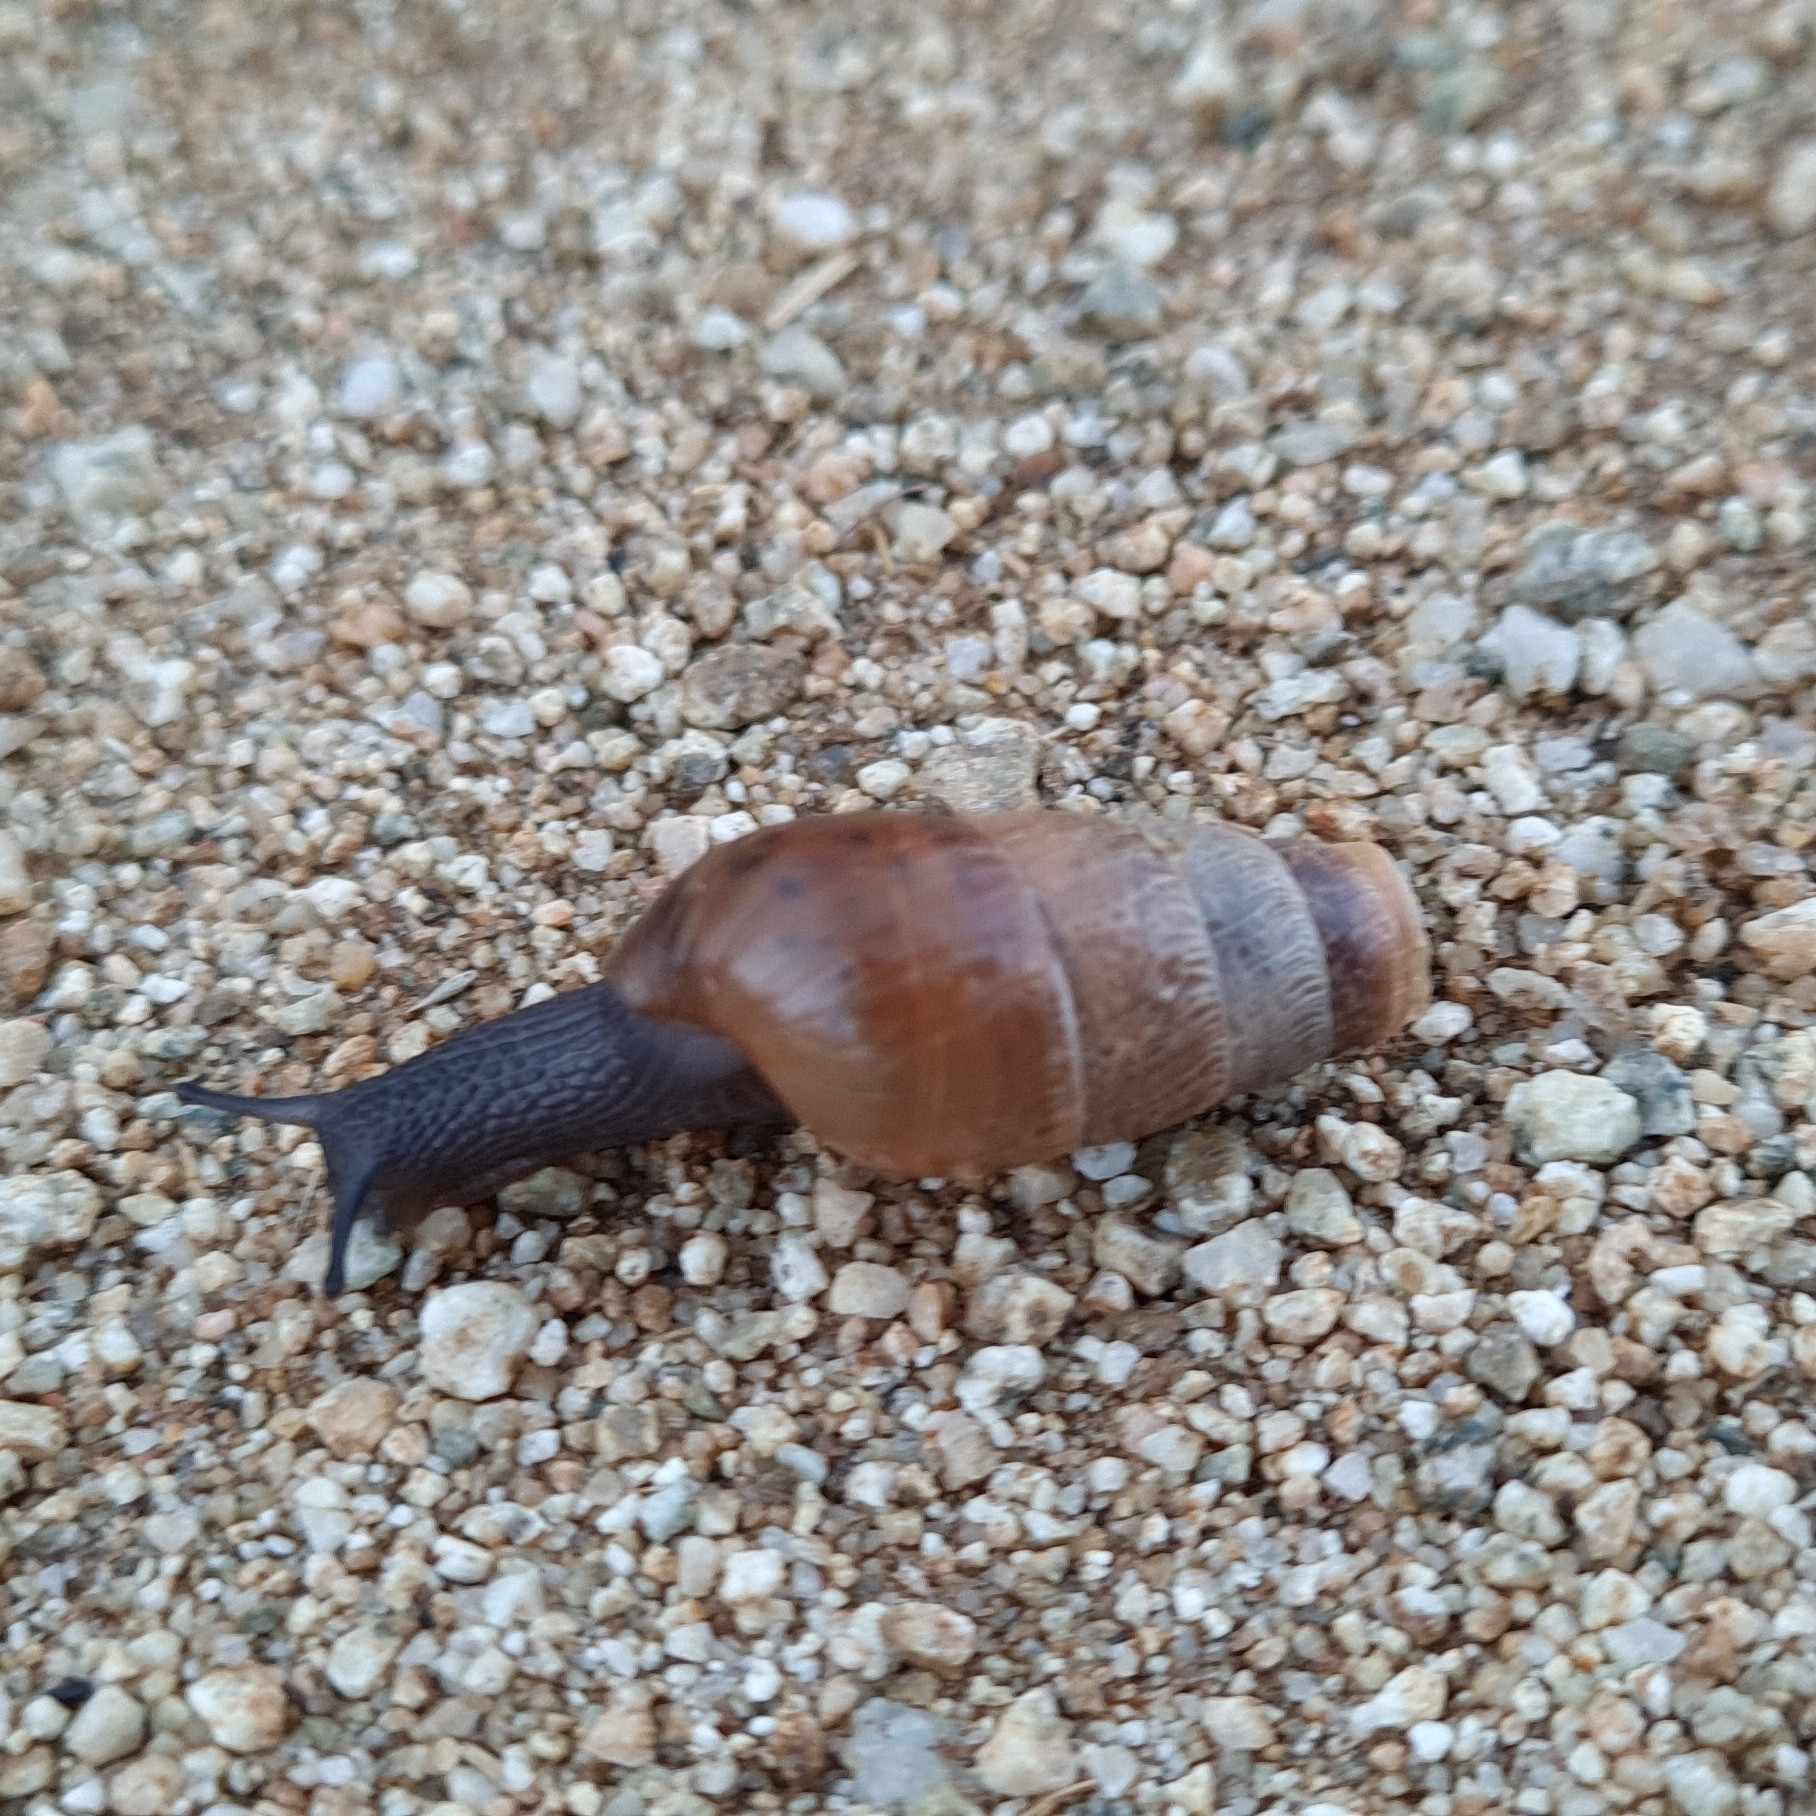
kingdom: Animalia
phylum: Mollusca
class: Gastropoda
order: Stylommatophora
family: Achatinidae
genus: Rumina
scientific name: Rumina decollata
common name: Decollate snail
